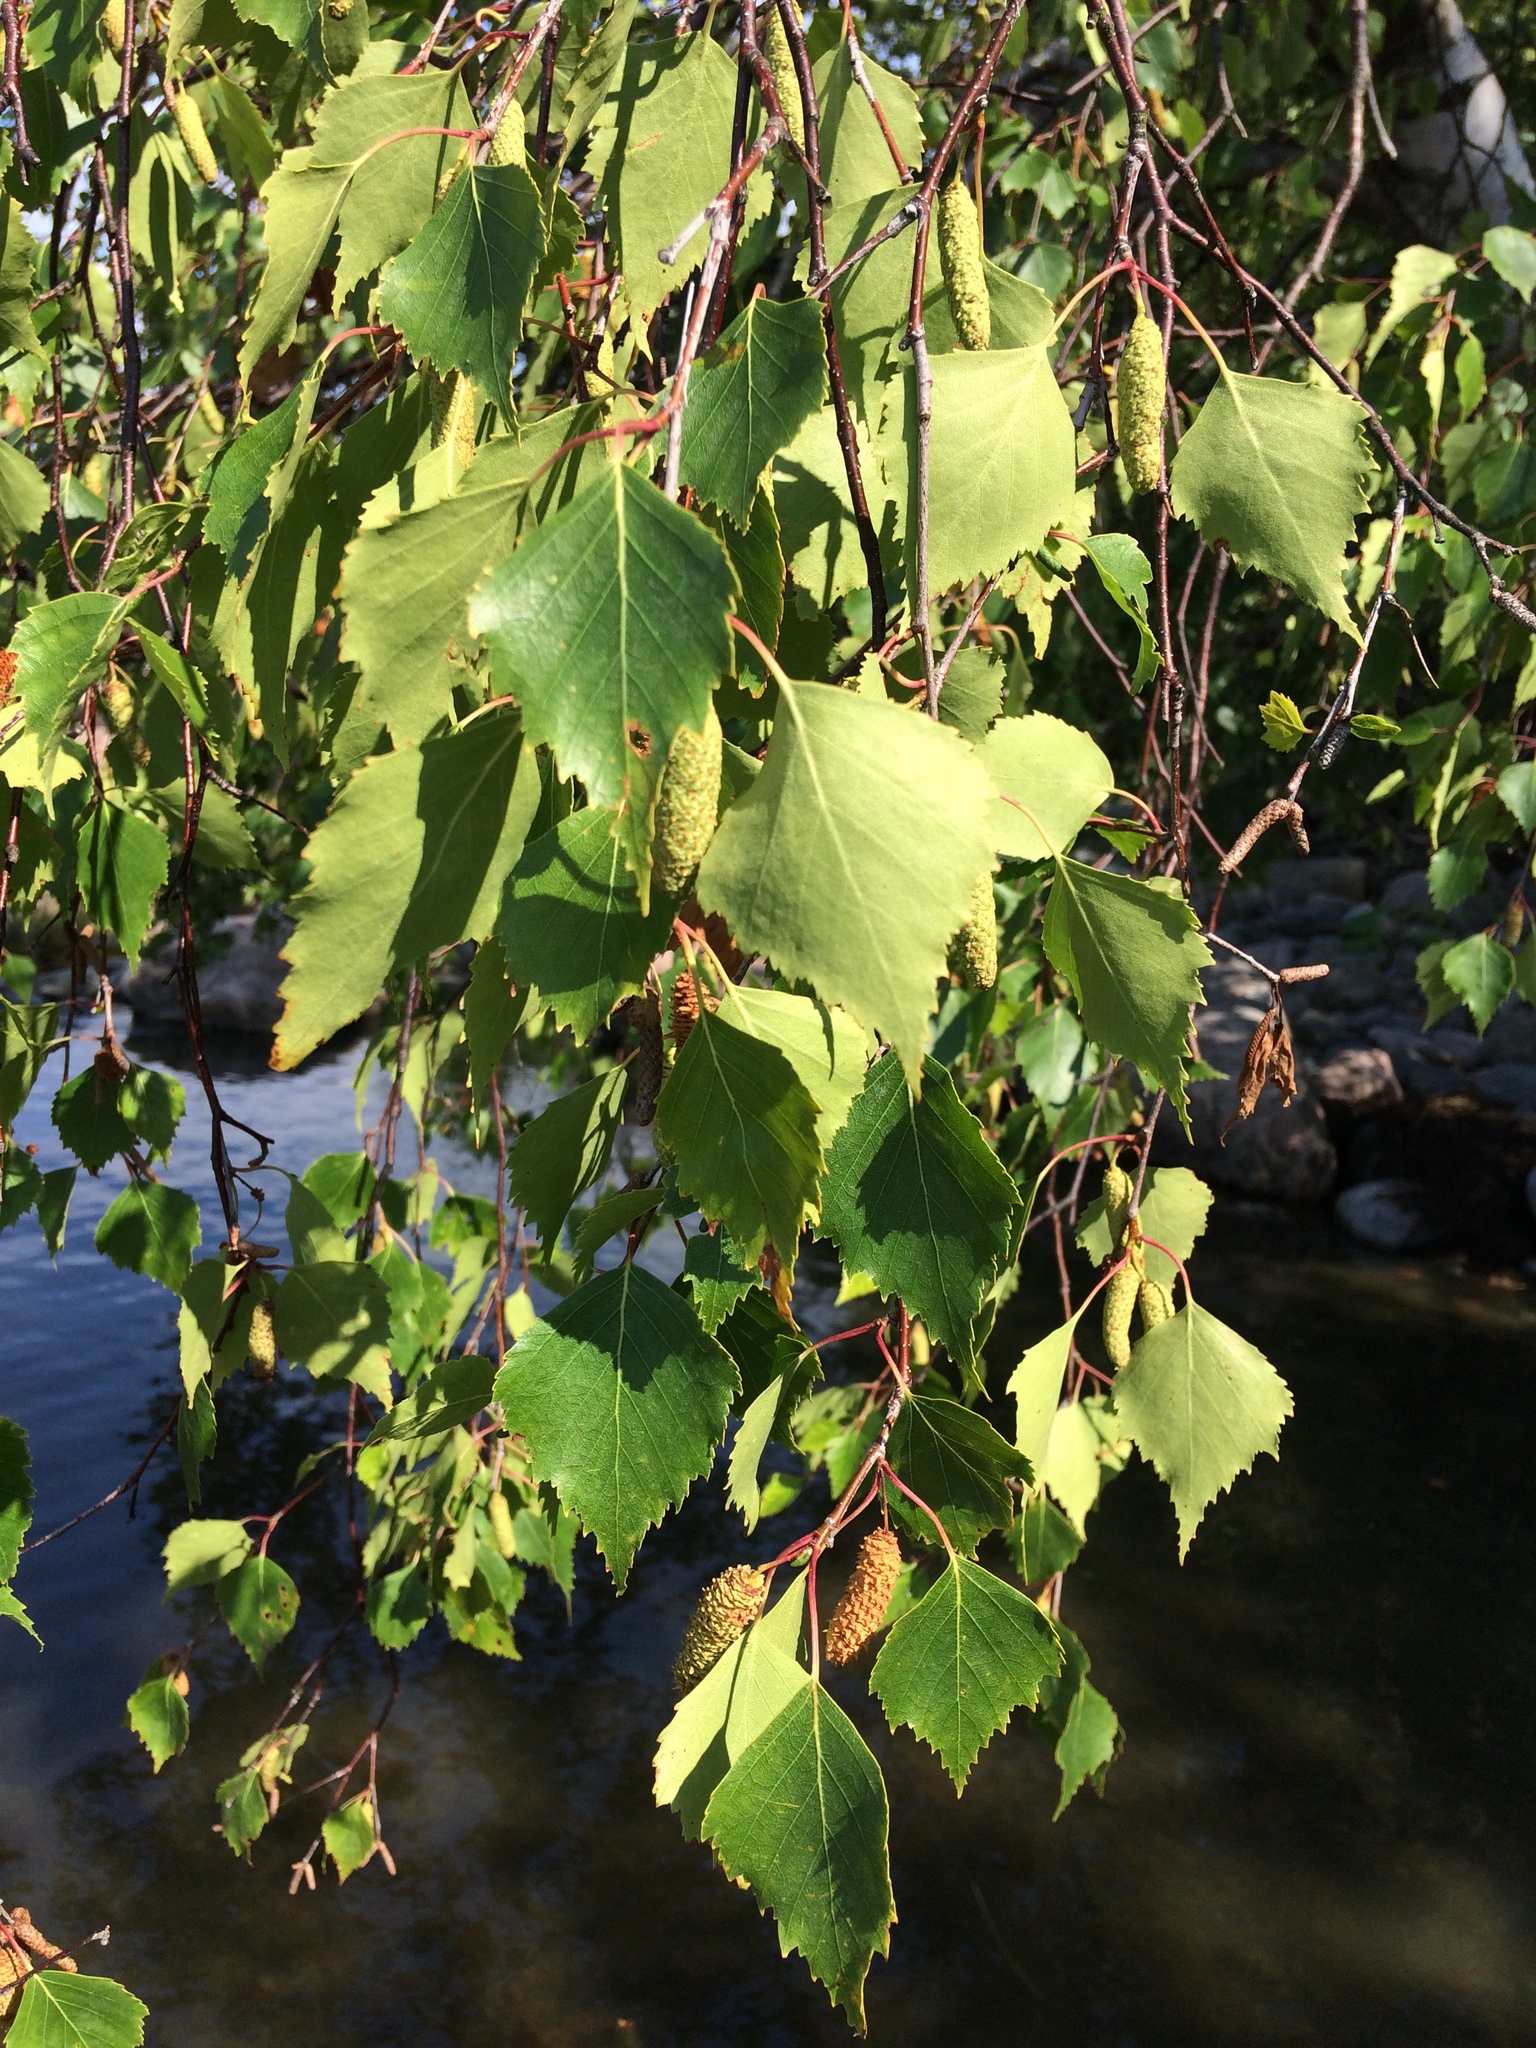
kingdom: Plantae
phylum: Tracheophyta
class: Magnoliopsida
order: Fagales
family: Betulaceae
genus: Betula
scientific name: Betula pendula
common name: Silver birch
